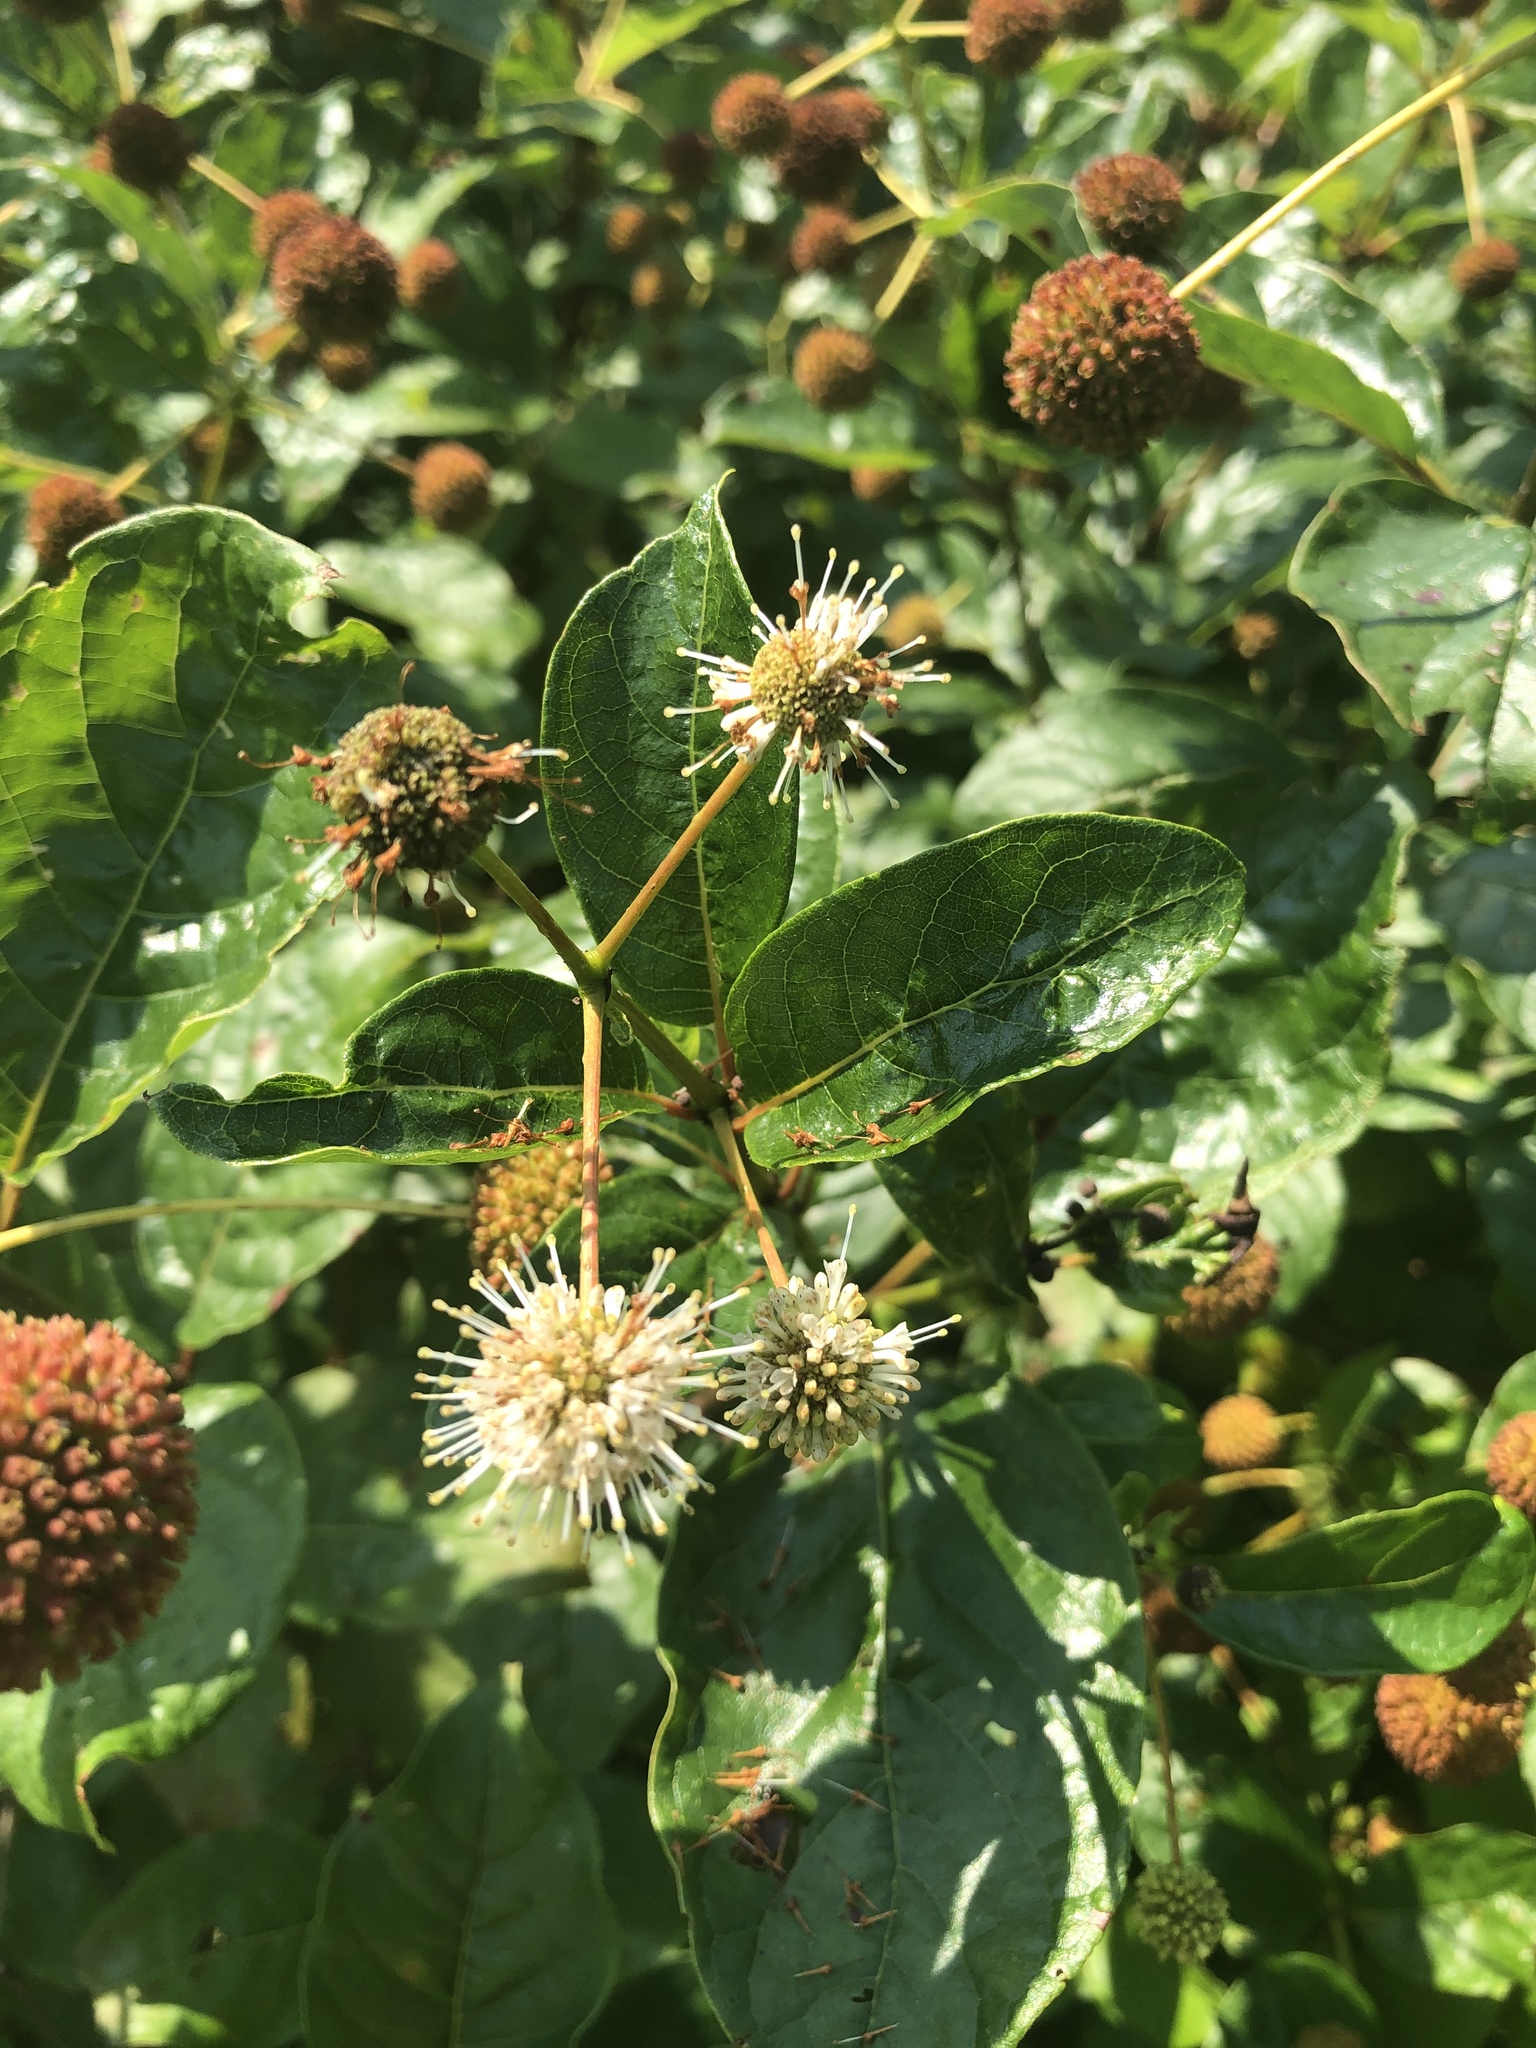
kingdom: Plantae
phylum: Tracheophyta
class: Magnoliopsida
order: Gentianales
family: Rubiaceae
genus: Cephalanthus
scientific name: Cephalanthus occidentalis
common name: Button-willow
